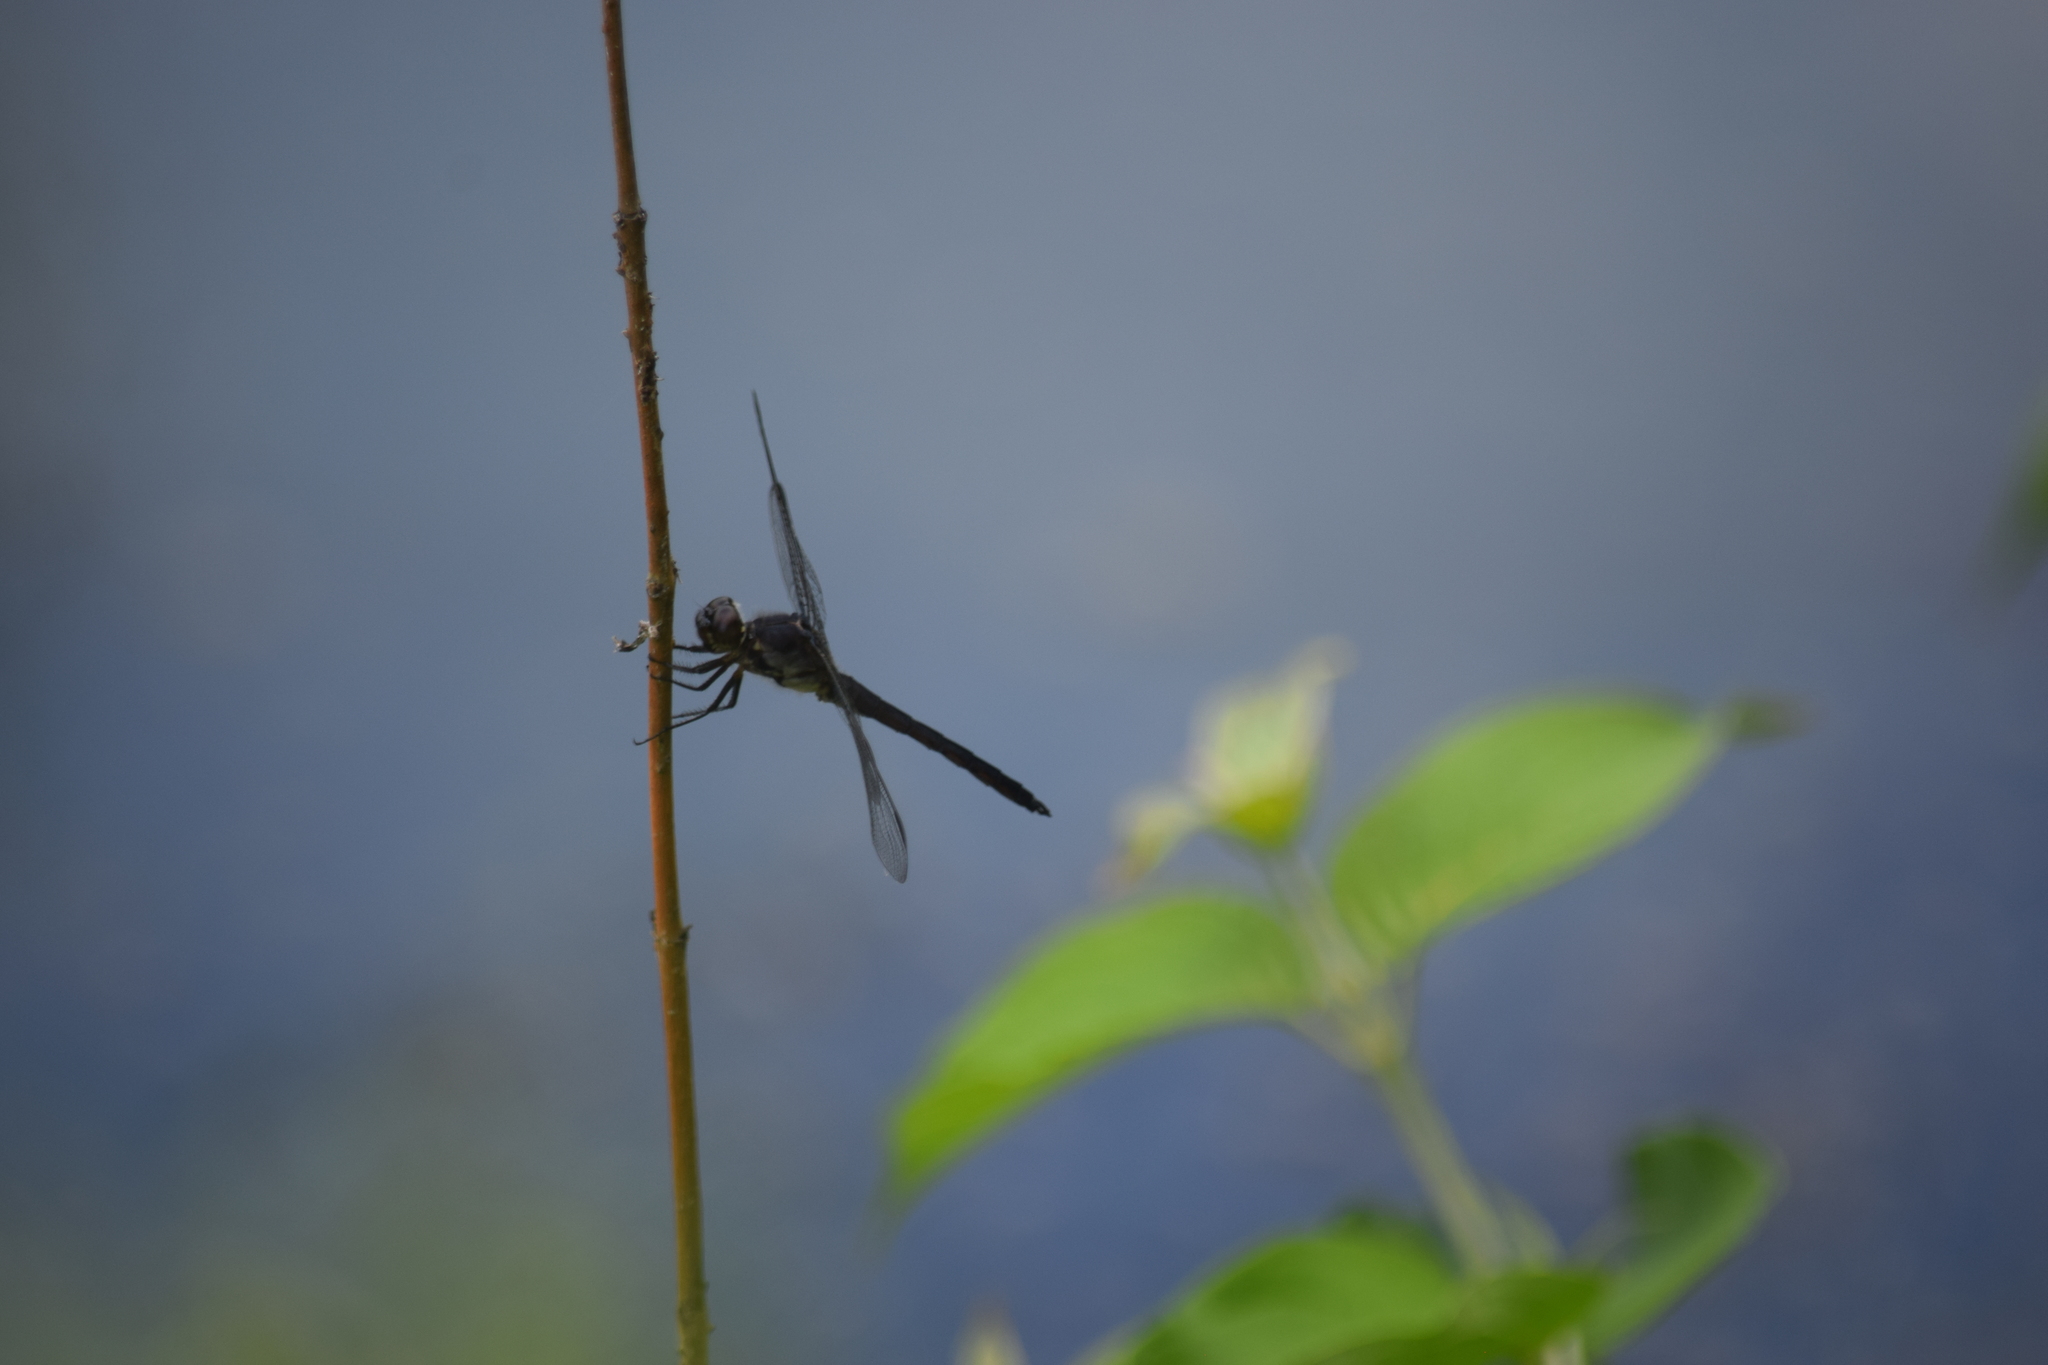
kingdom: Animalia
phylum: Arthropoda
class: Insecta
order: Odonata
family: Libellulidae
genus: Libellula
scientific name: Libellula incesta
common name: Slaty skimmer
